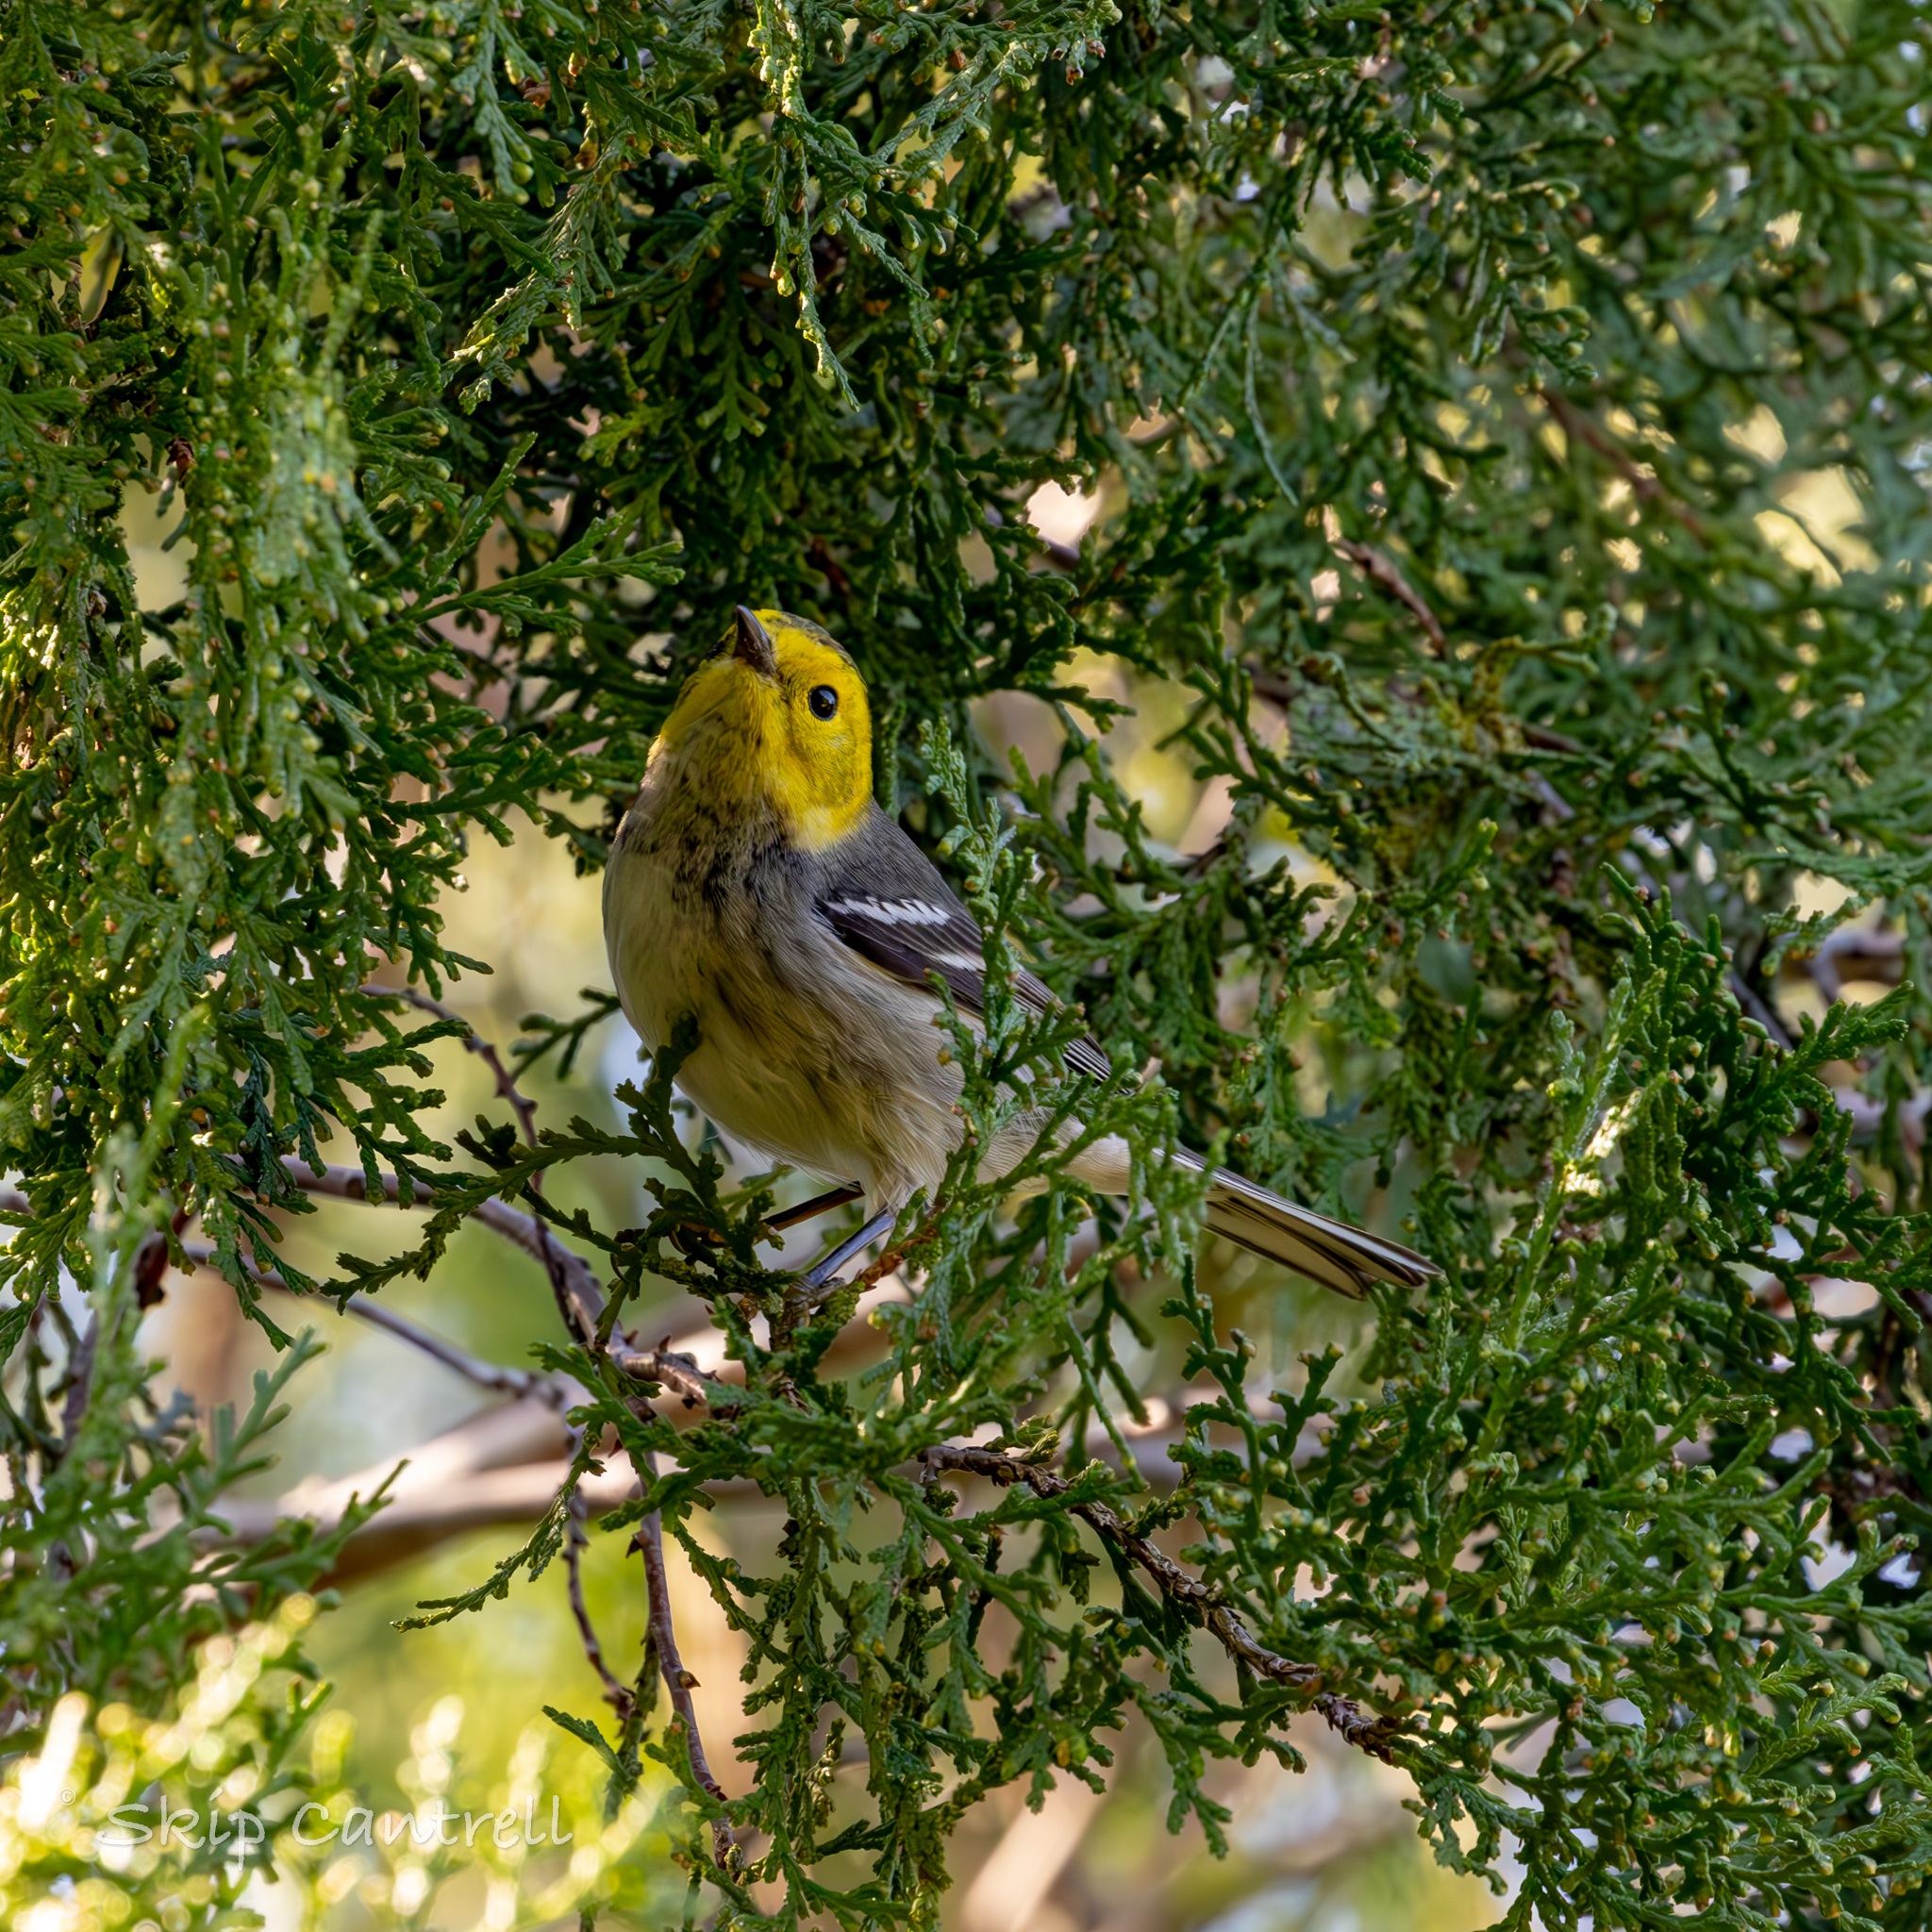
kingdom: Animalia
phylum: Chordata
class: Aves
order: Passeriformes
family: Parulidae
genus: Setophaga
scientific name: Setophaga occidentalis
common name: Hermit warbler
